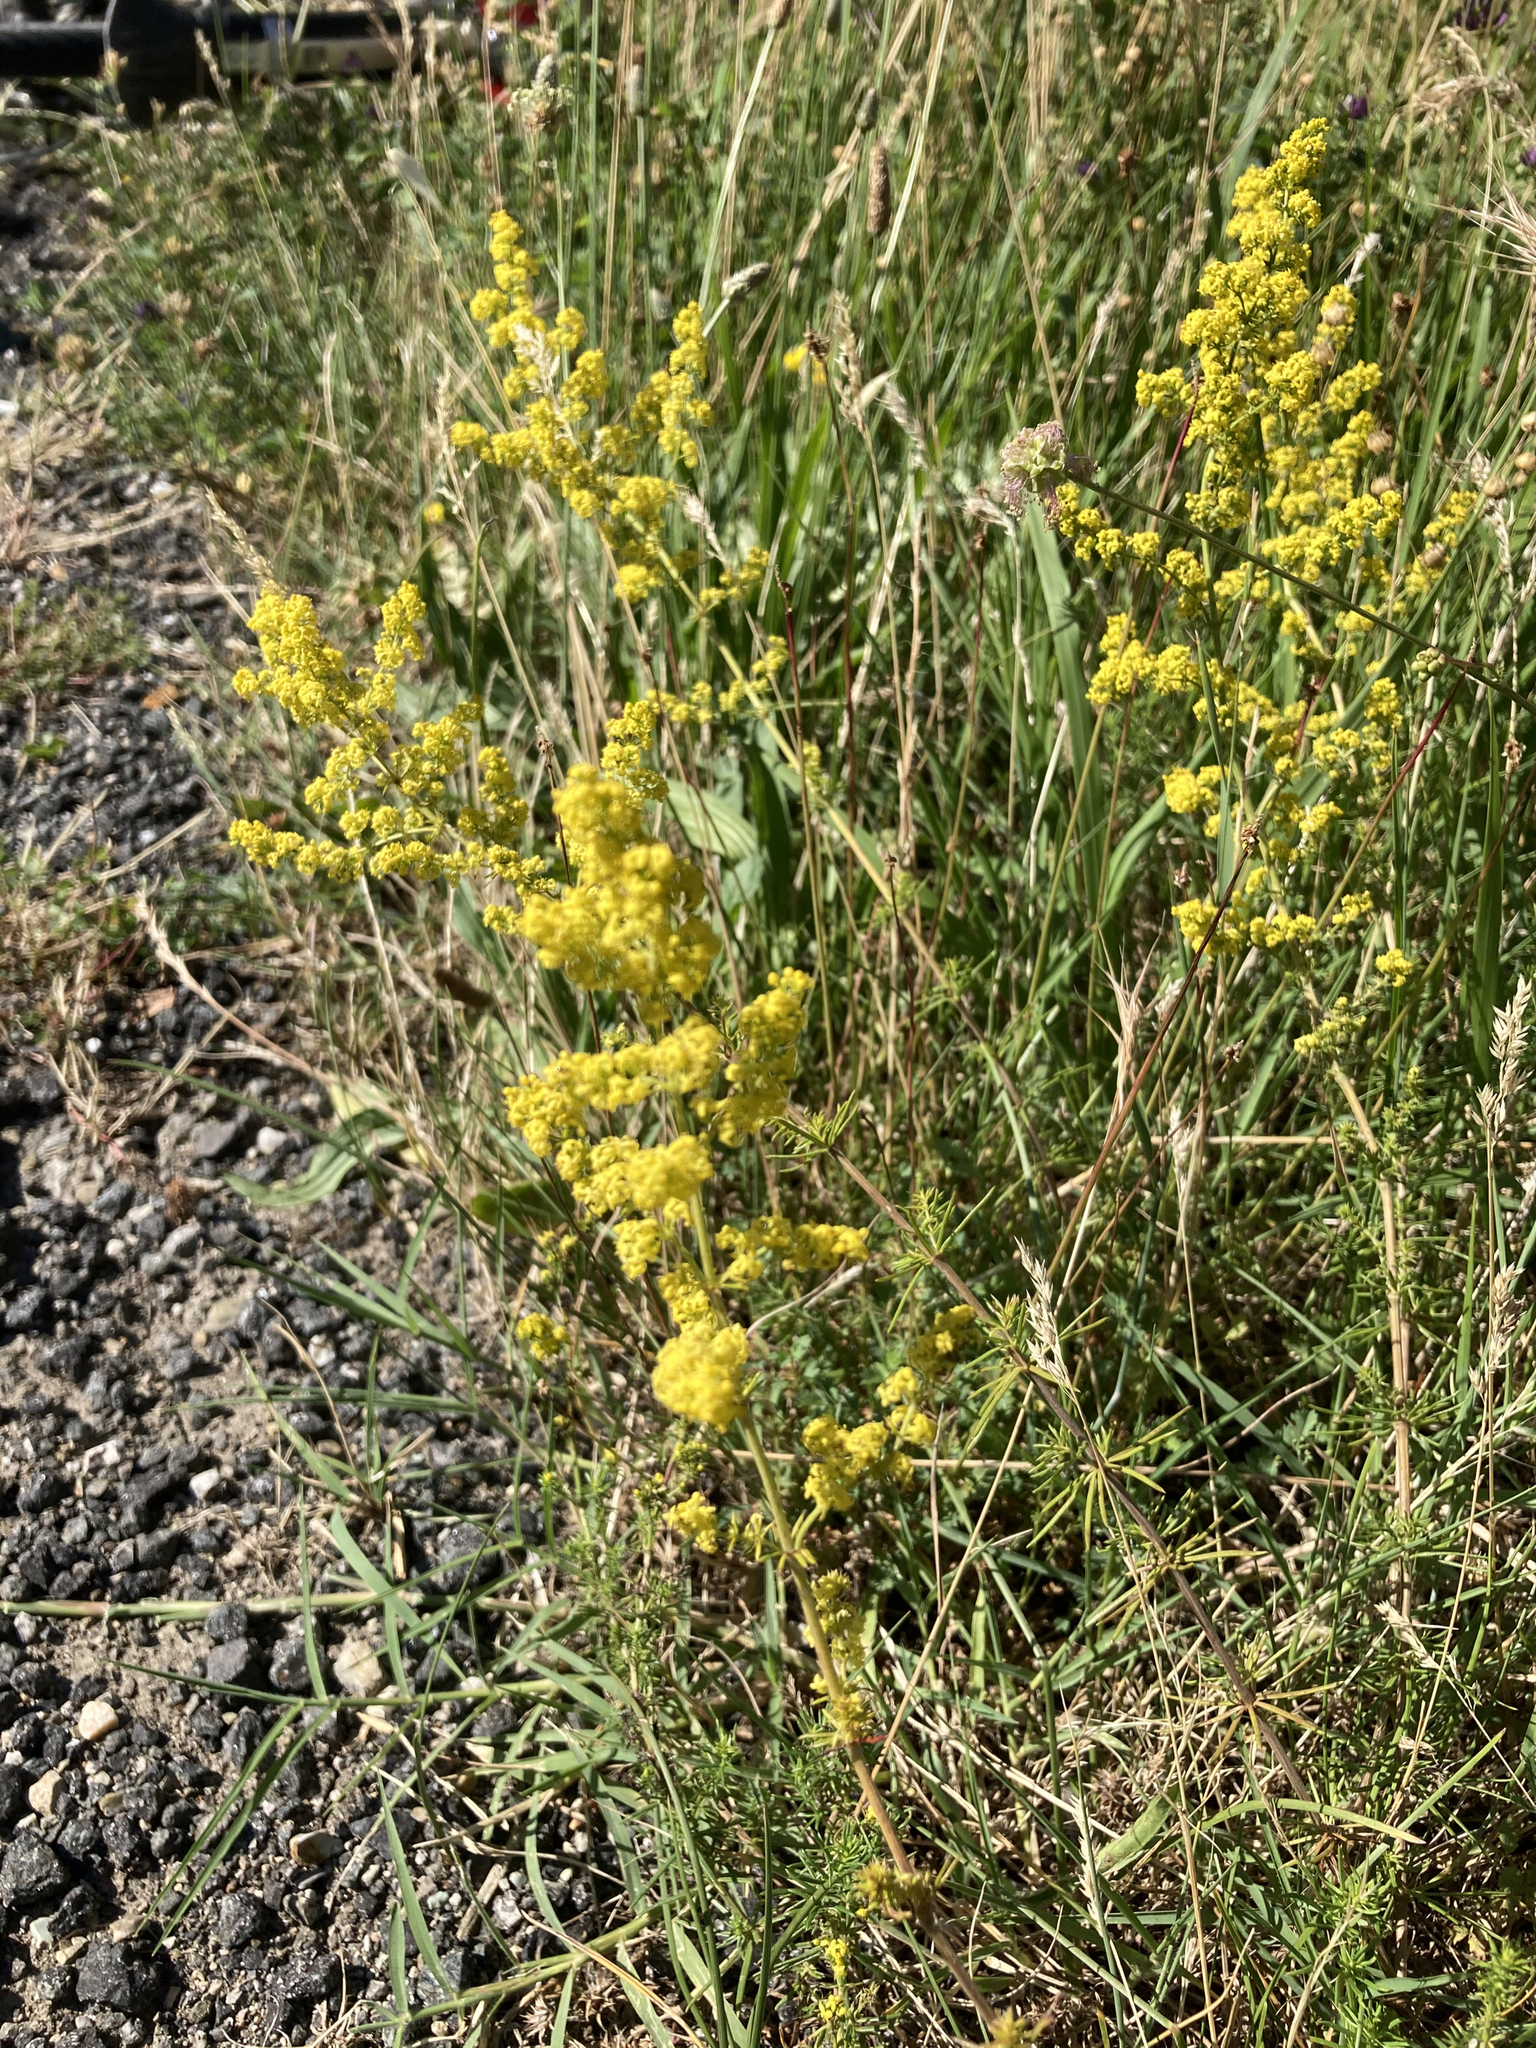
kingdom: Plantae
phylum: Tracheophyta
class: Magnoliopsida
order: Gentianales
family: Rubiaceae
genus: Galium
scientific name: Galium verum
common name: Lady's bedstraw
